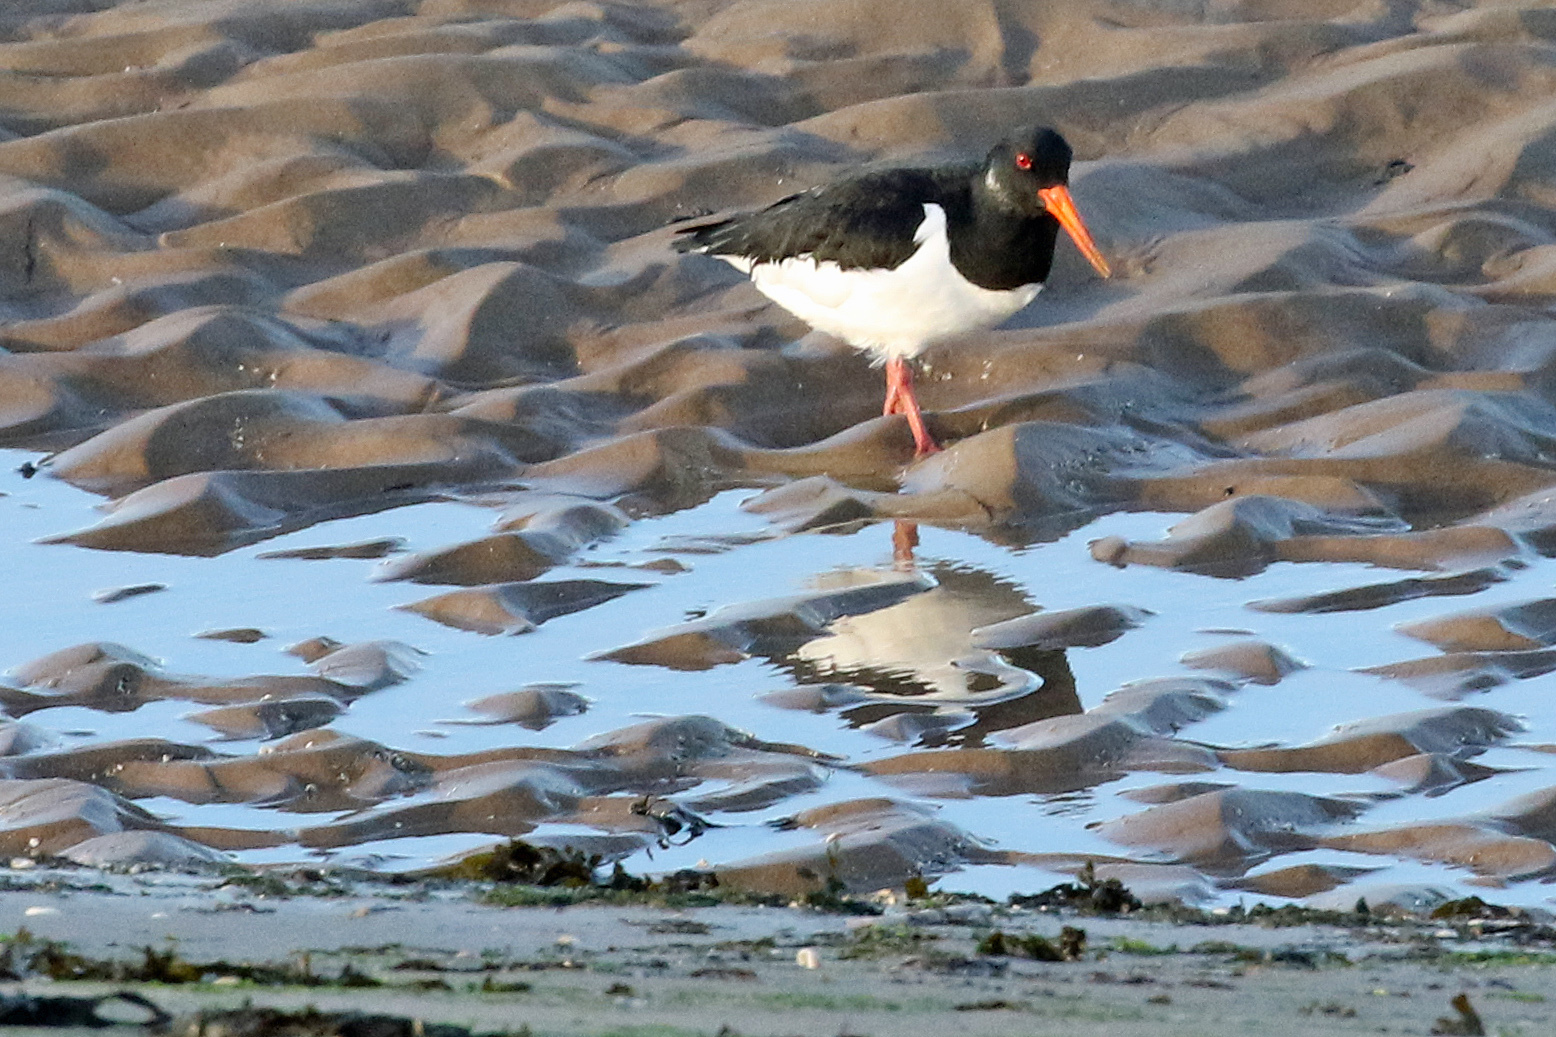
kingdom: Animalia
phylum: Chordata
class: Aves
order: Charadriiformes
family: Haematopodidae
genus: Haematopus
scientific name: Haematopus ostralegus
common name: Eurasian oystercatcher
